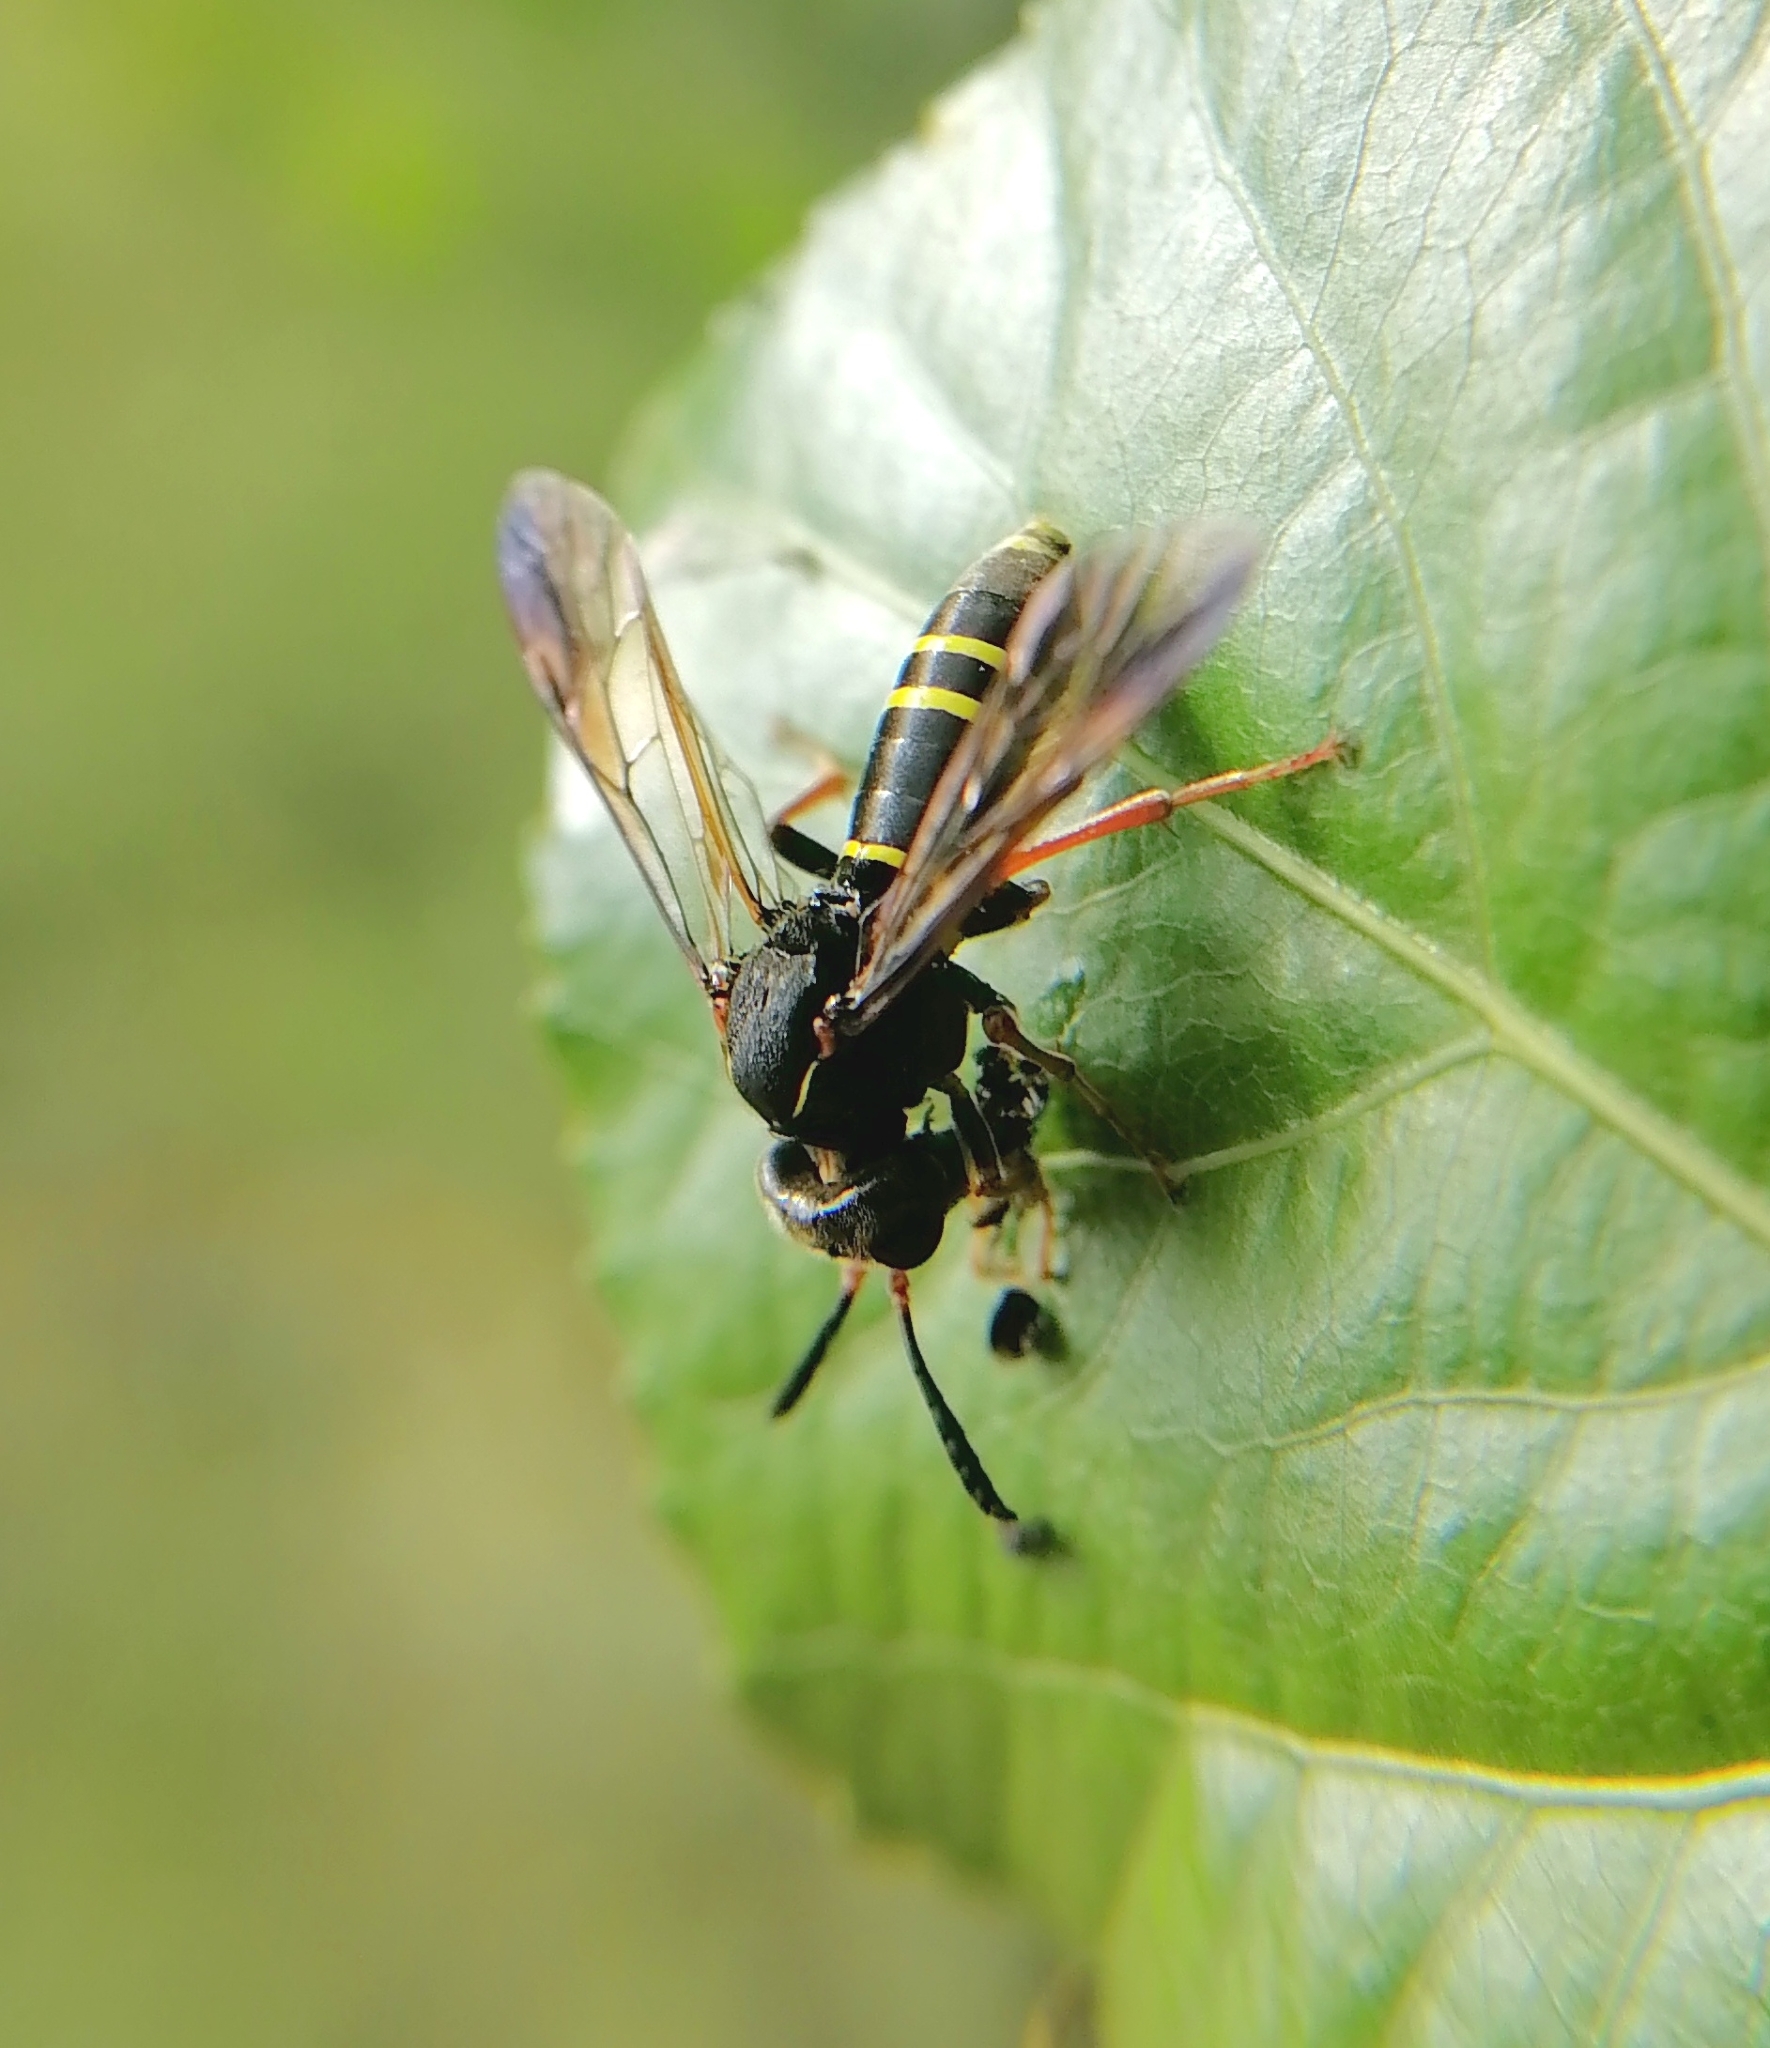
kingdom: Animalia
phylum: Arthropoda
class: Insecta
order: Hymenoptera
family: Tenthredinidae
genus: Tenthredo
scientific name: Tenthredo vespa
